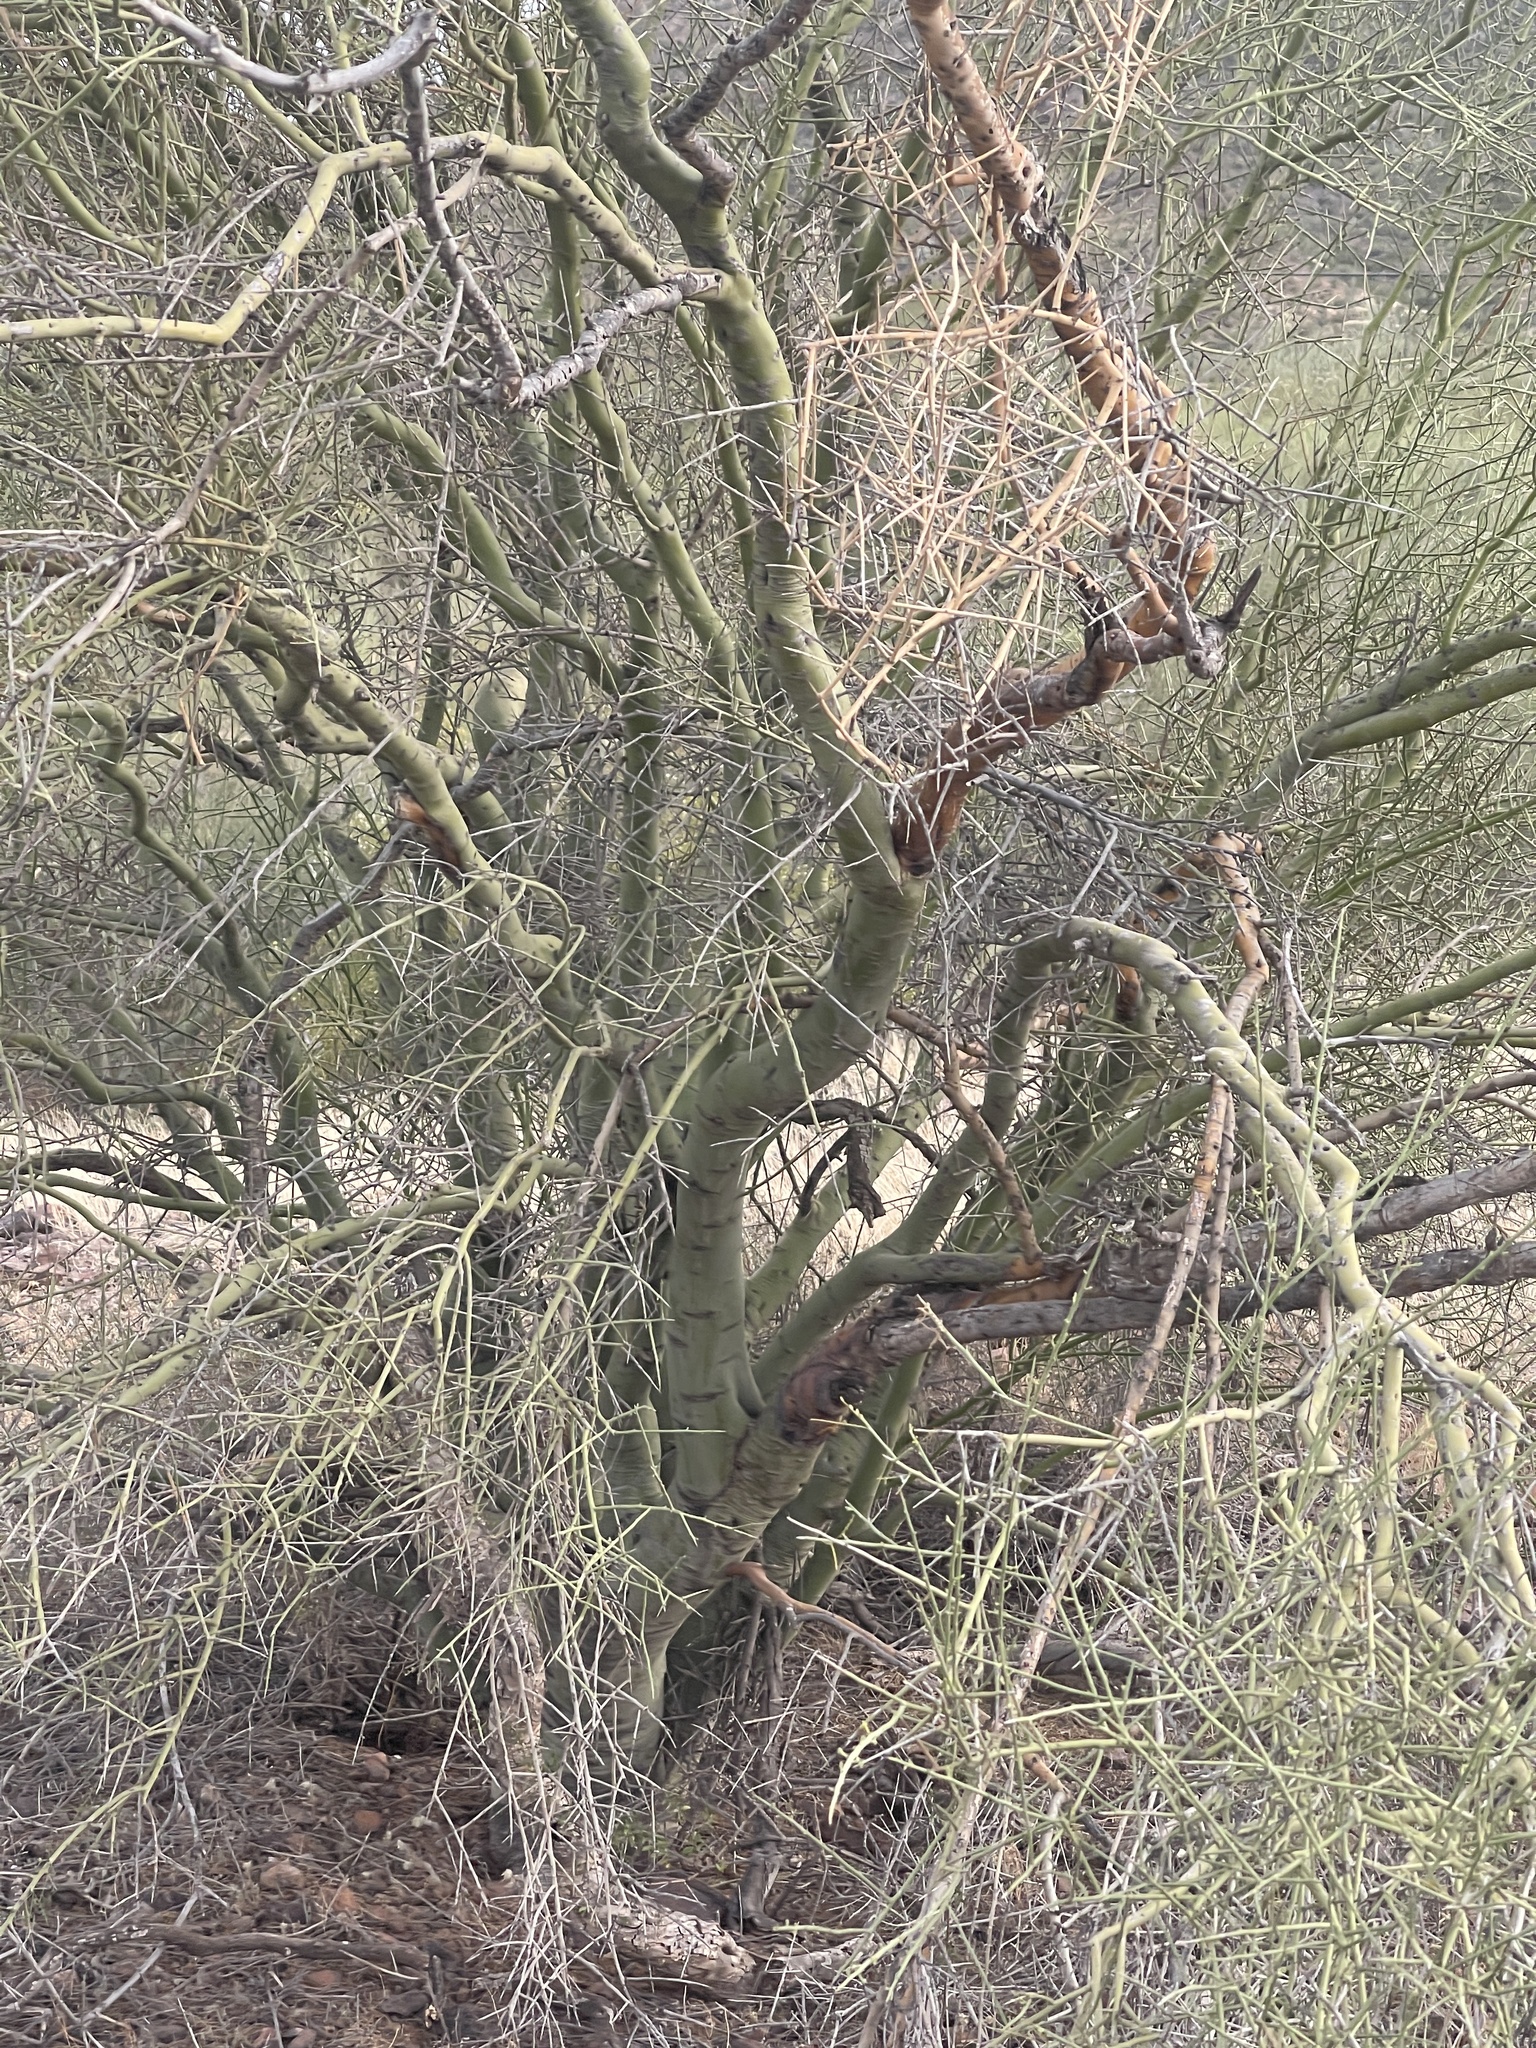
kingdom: Plantae
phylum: Tracheophyta
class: Magnoliopsida
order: Fabales
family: Fabaceae
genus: Parkinsonia
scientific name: Parkinsonia microphylla
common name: Yellow paloverde
